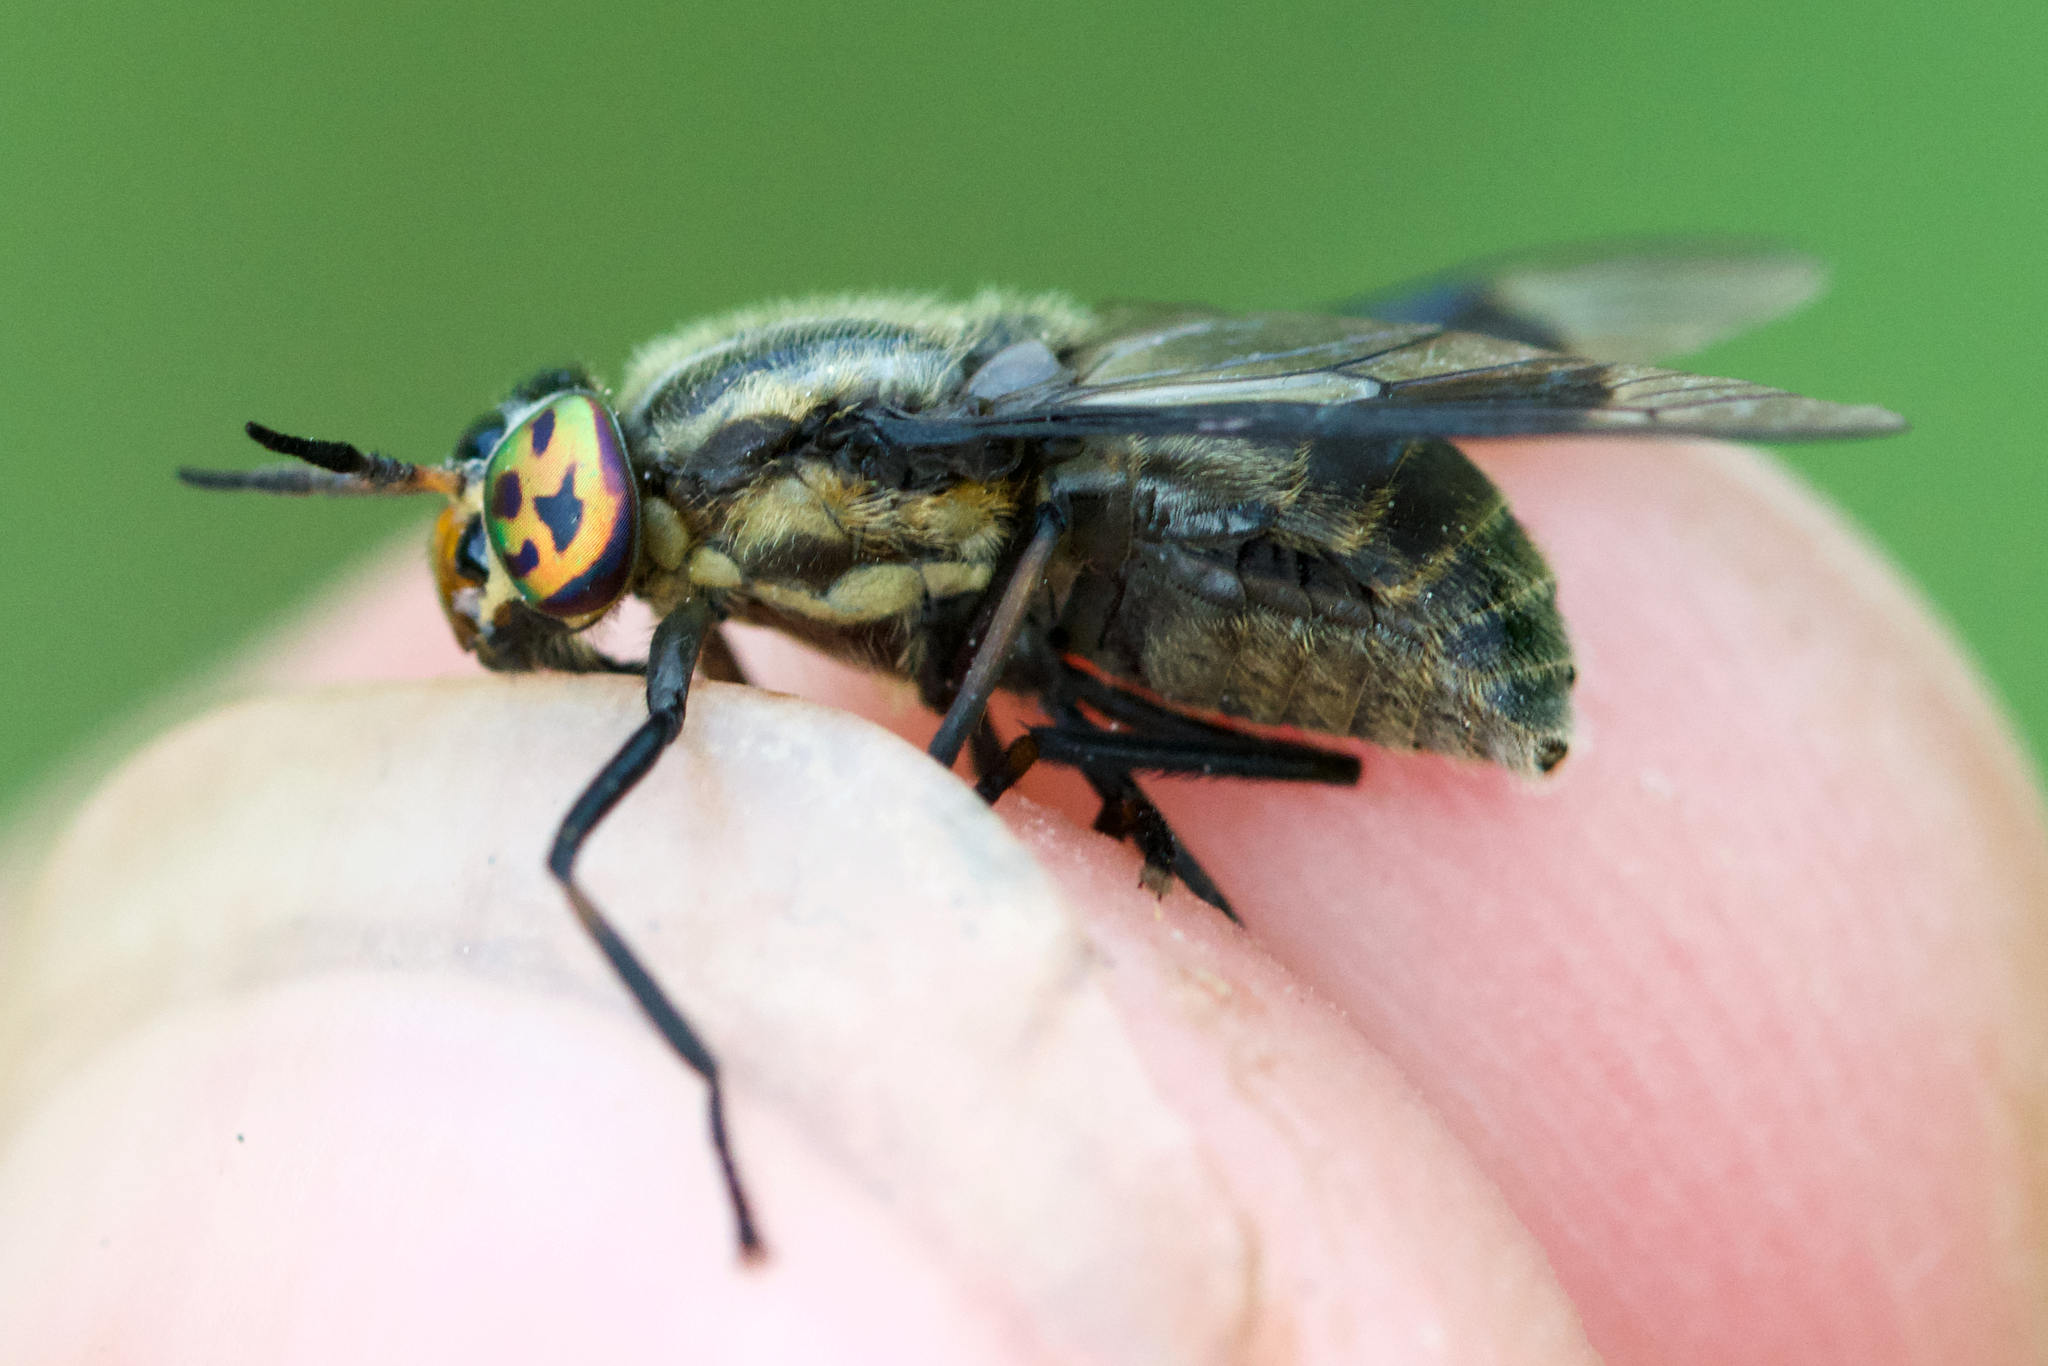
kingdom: Animalia
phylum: Arthropoda
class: Insecta
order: Diptera
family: Tabanidae
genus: Chrysops
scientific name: Chrysops calvus
